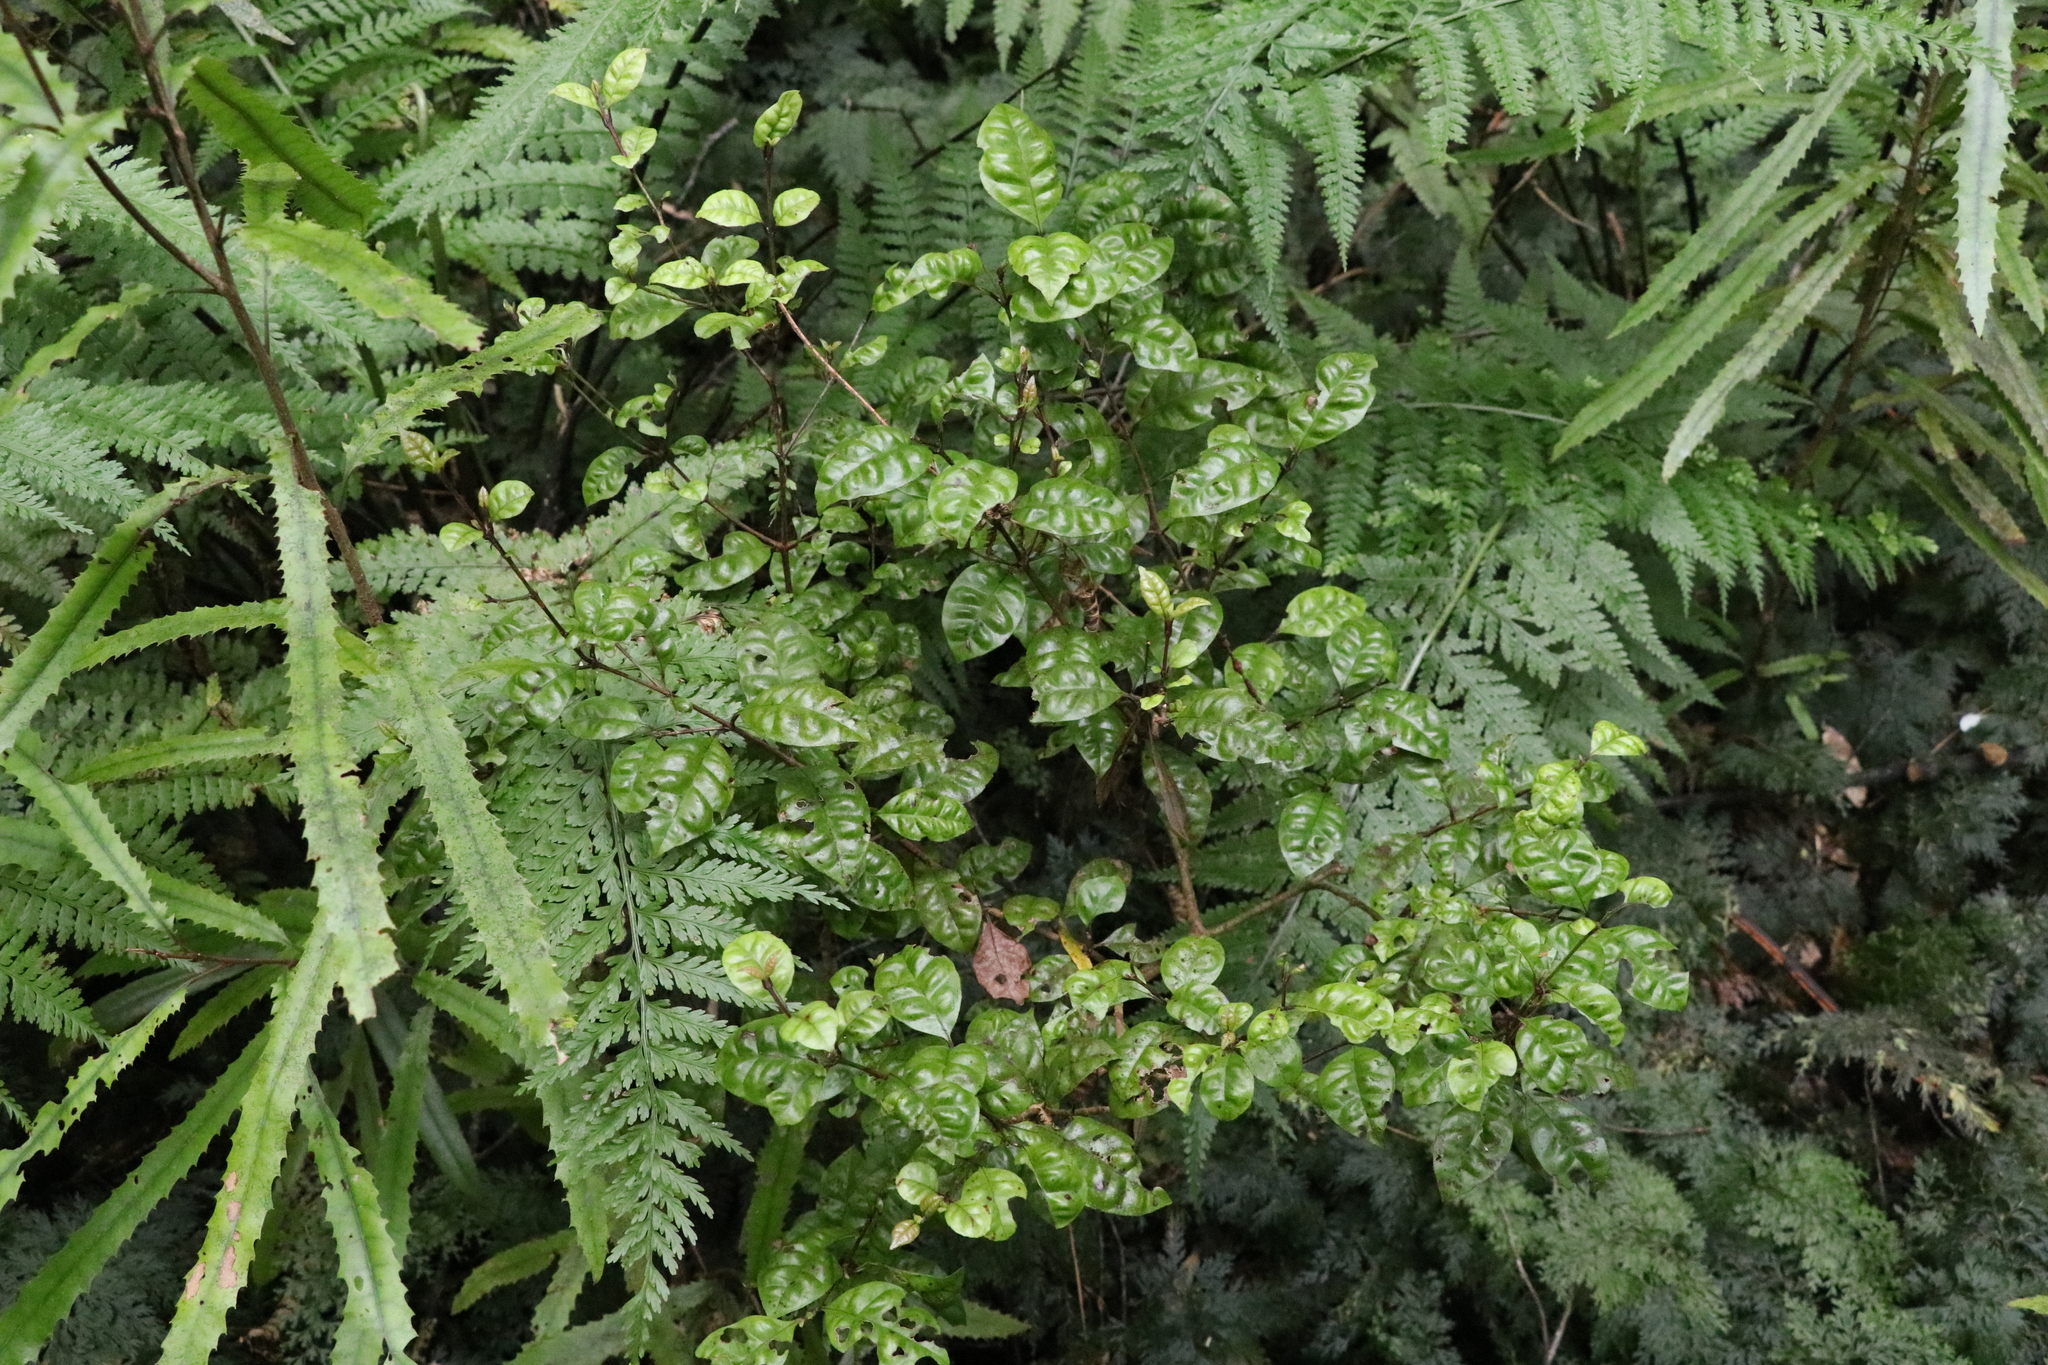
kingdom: Plantae
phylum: Tracheophyta
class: Magnoliopsida
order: Myrtales
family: Myrtaceae
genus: Lophomyrtus
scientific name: Lophomyrtus bullata
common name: Rama rama
